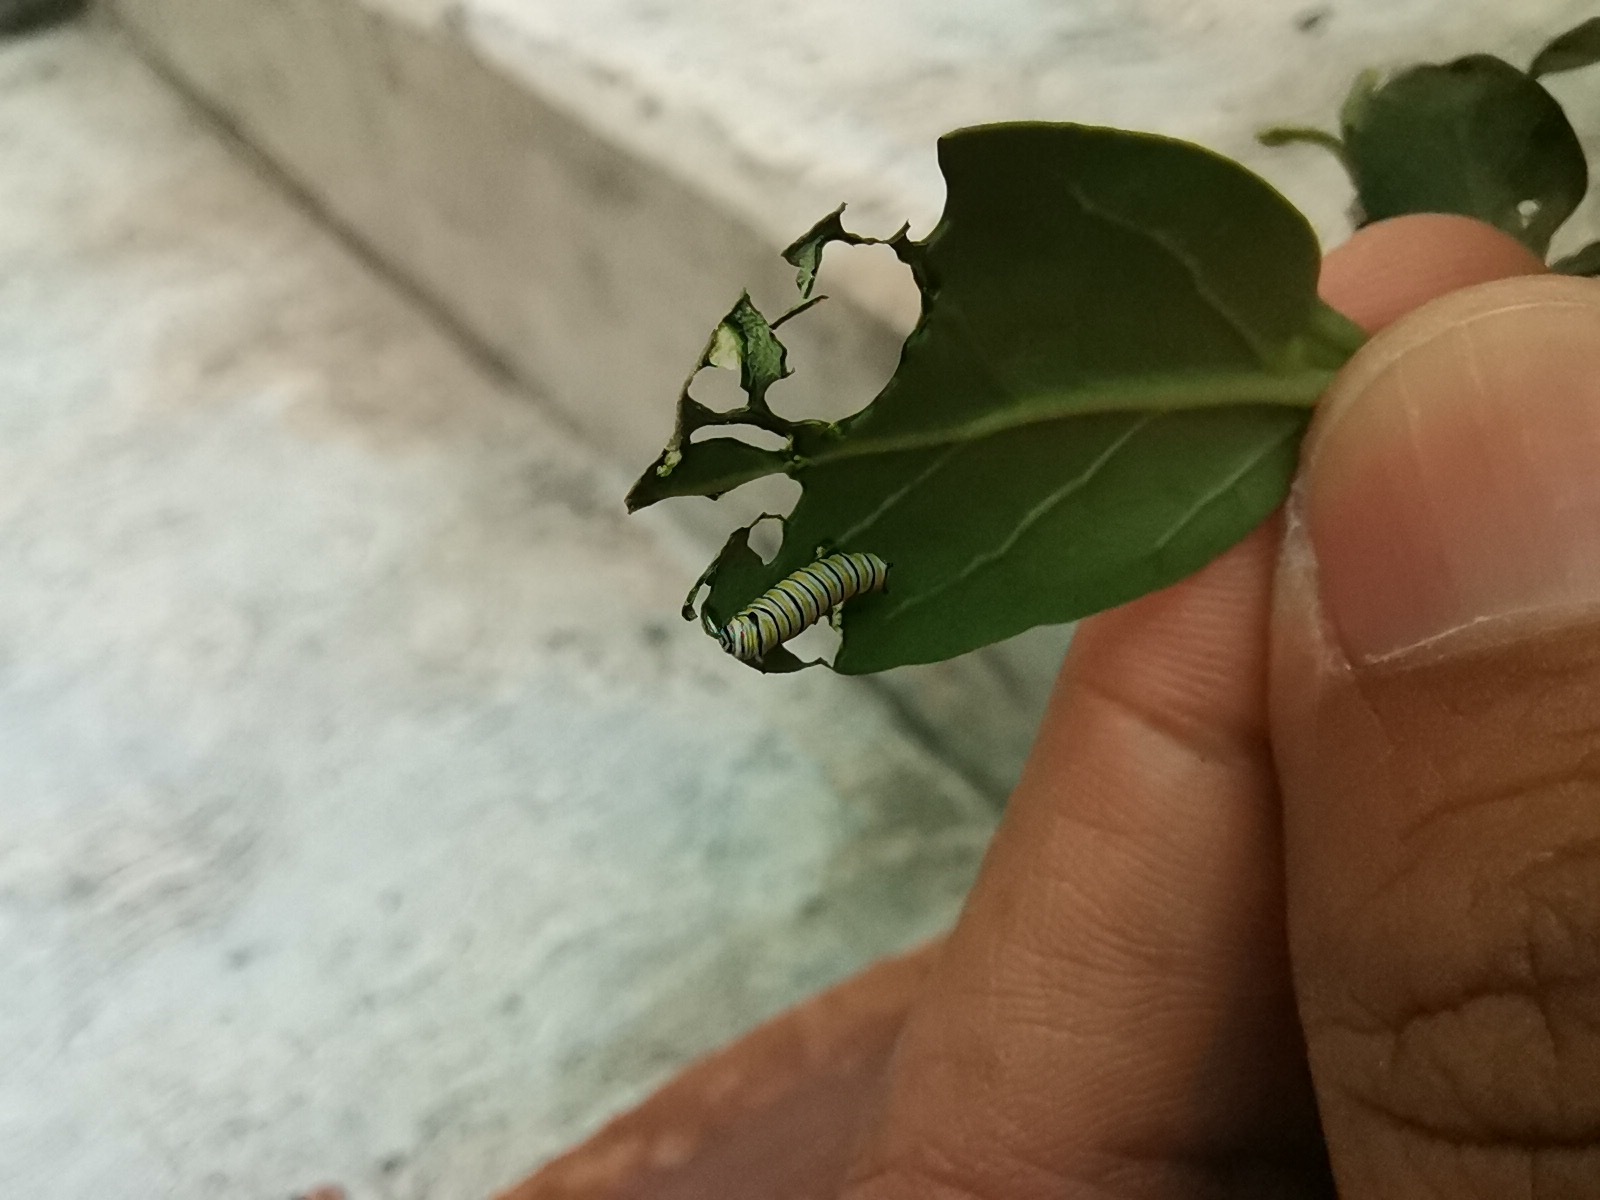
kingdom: Animalia
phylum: Arthropoda
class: Insecta
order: Lepidoptera
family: Nymphalidae
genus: Danaus
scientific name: Danaus plexippus
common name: Monarch
